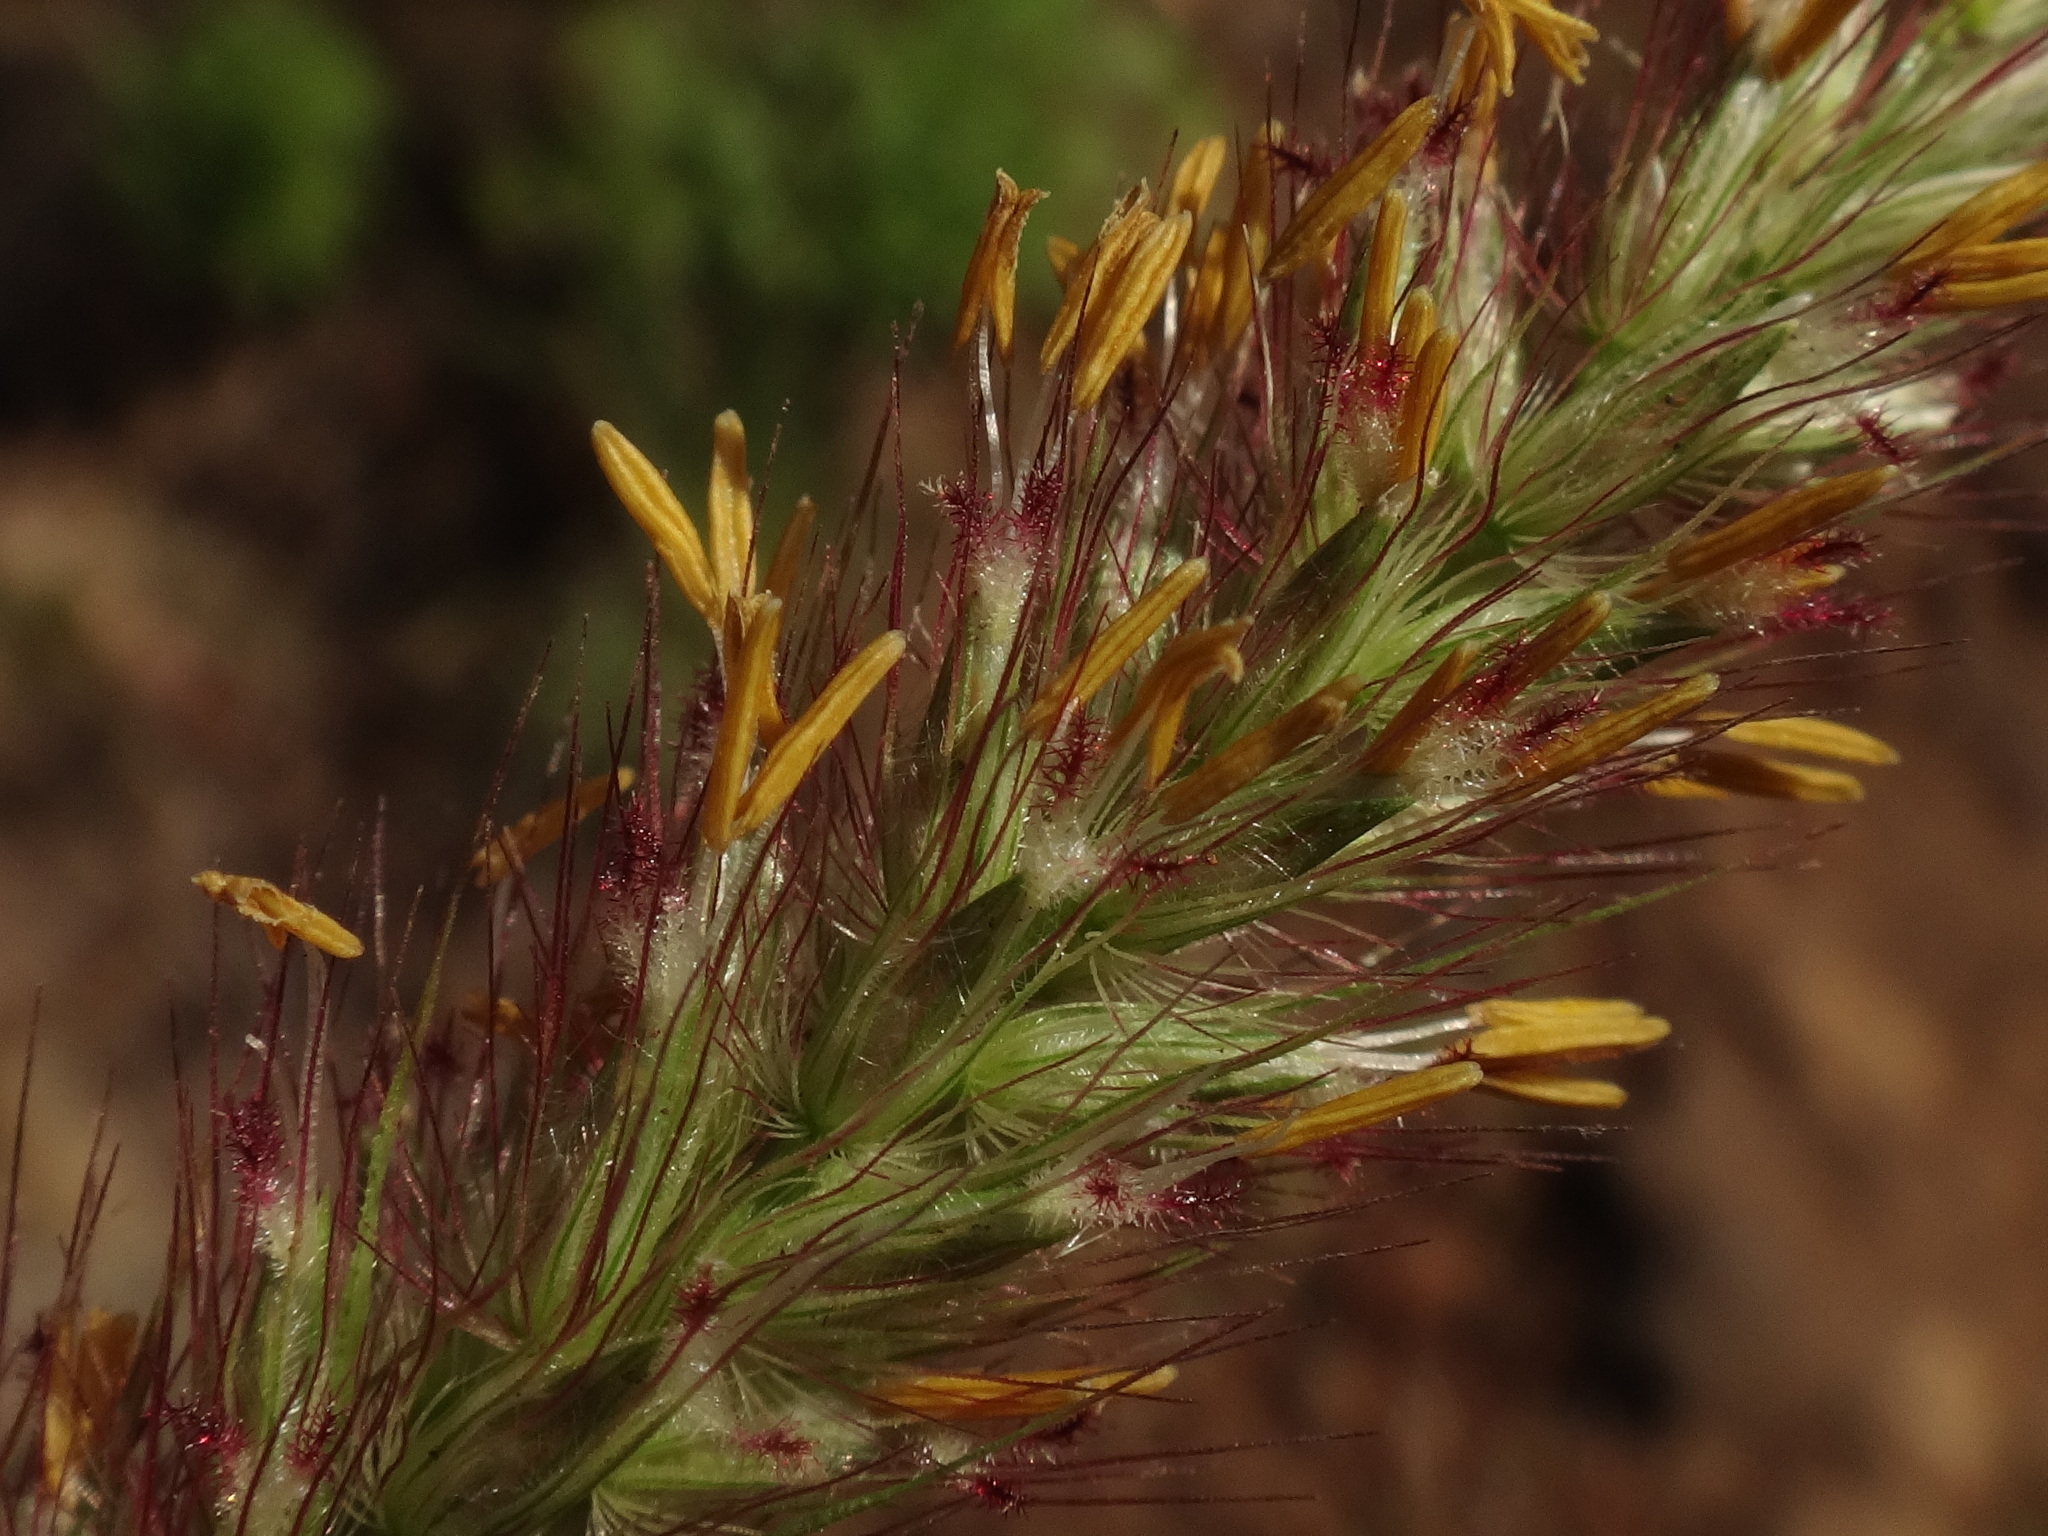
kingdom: Plantae
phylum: Tracheophyta
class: Liliopsida
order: Poales
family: Poaceae
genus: Cenchrus
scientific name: Cenchrus ciliaris
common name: Buffelgrass
